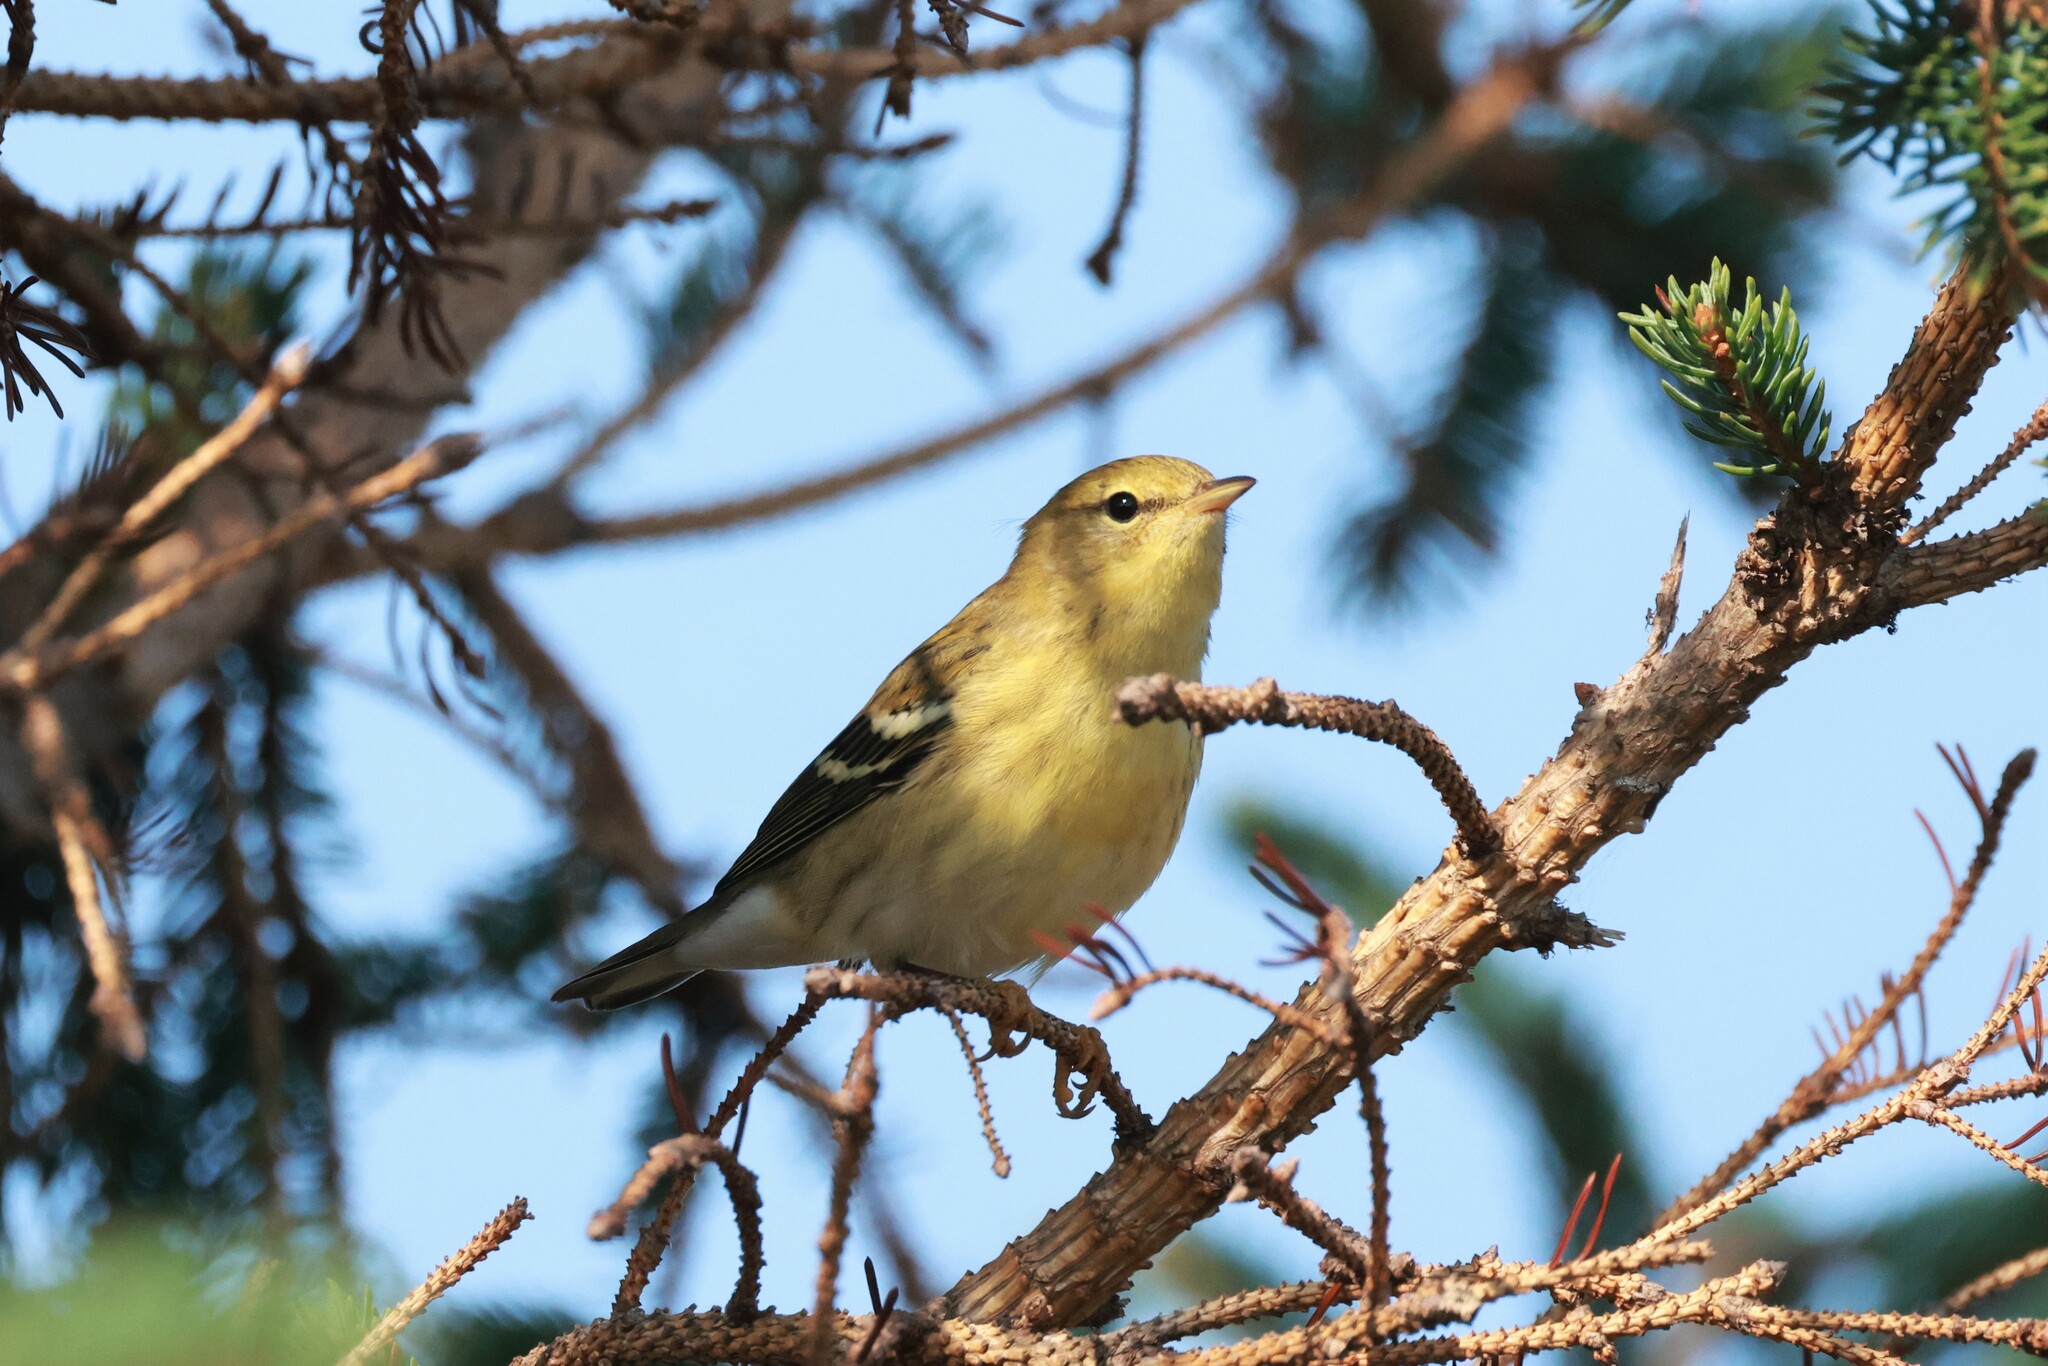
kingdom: Animalia
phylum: Chordata
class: Aves
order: Passeriformes
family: Parulidae
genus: Setophaga
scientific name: Setophaga striata
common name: Blackpoll warbler
